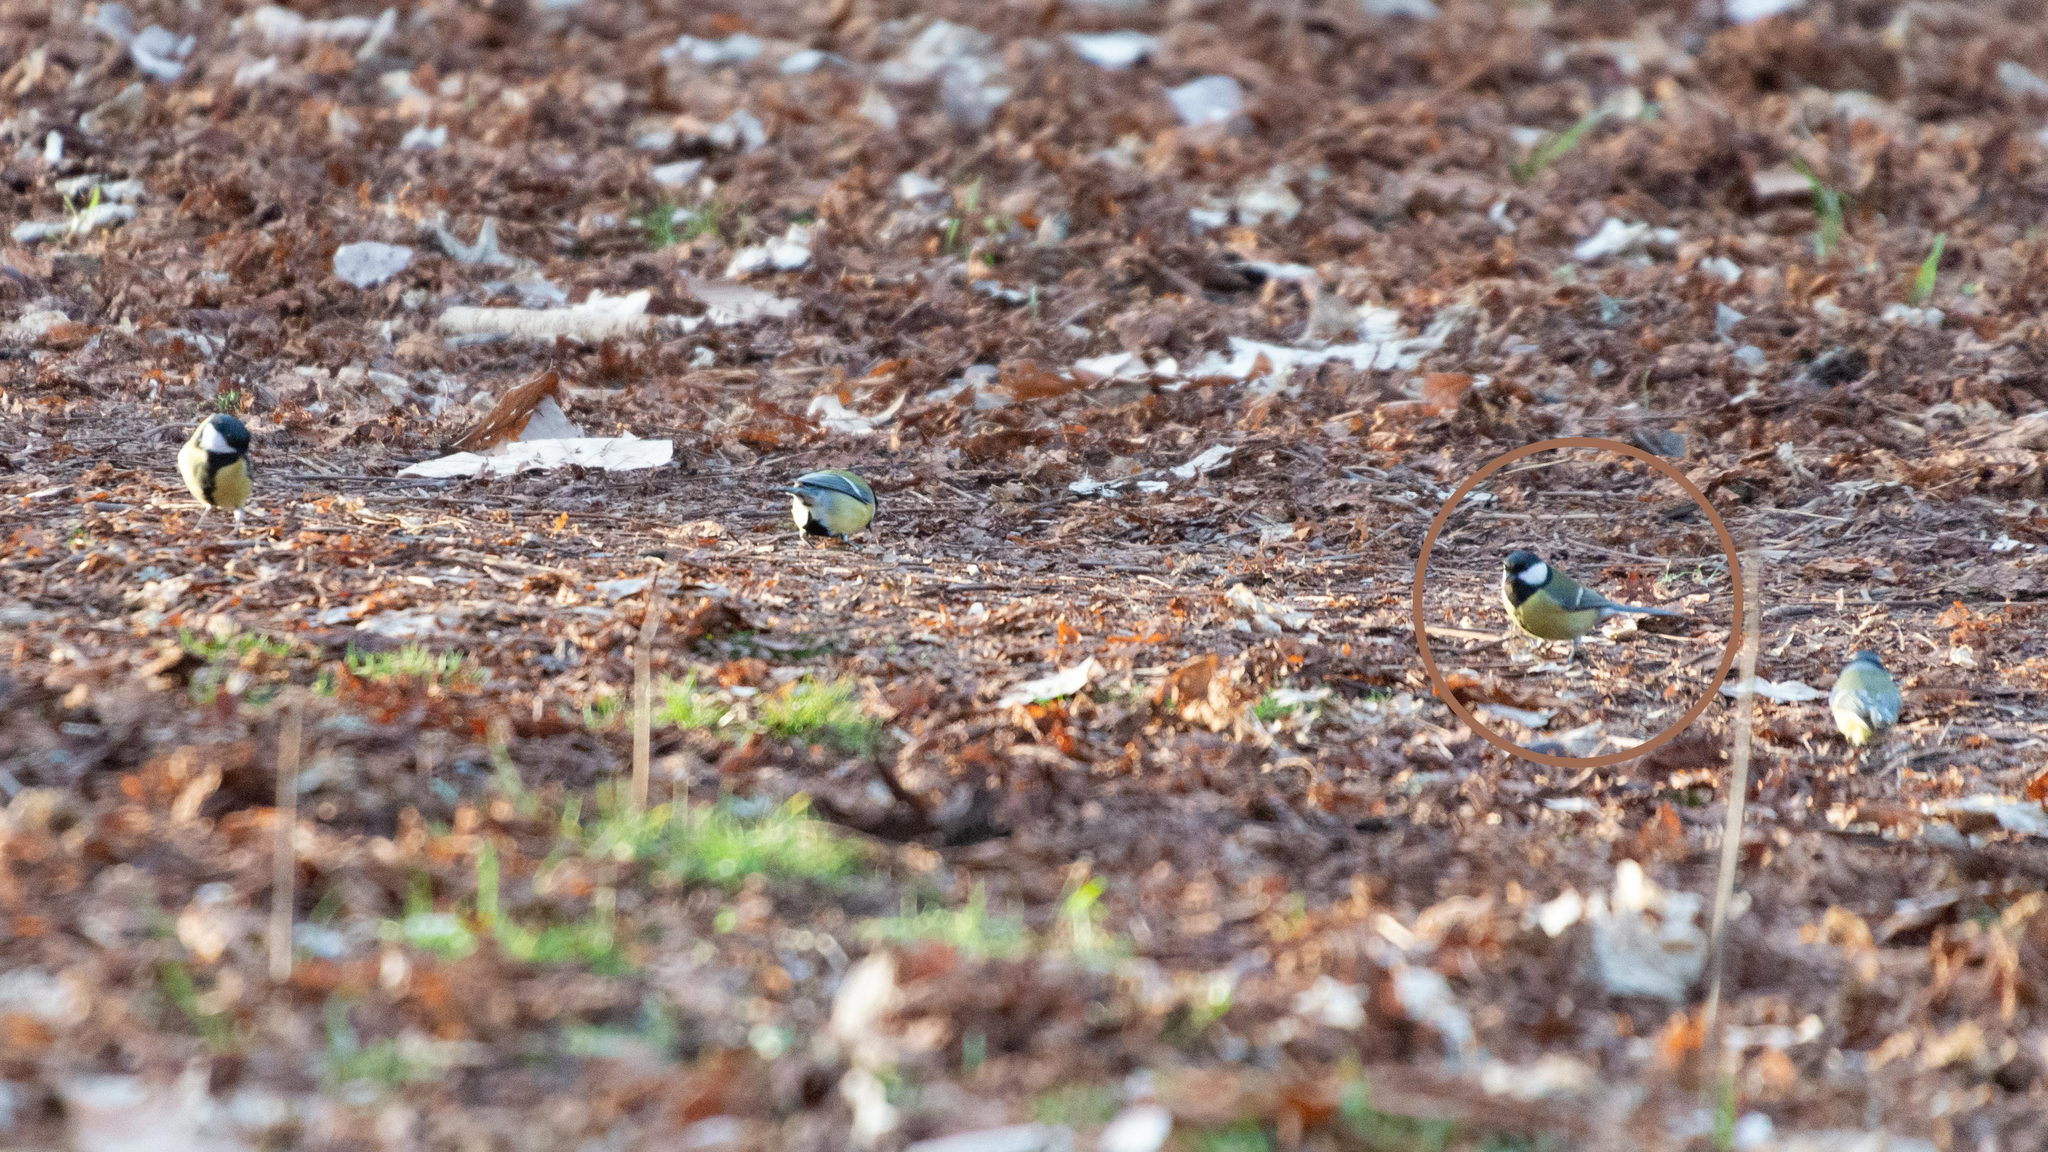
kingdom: Animalia
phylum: Chordata
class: Aves
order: Passeriformes
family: Paridae
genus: Parus
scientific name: Parus major
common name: Great tit
